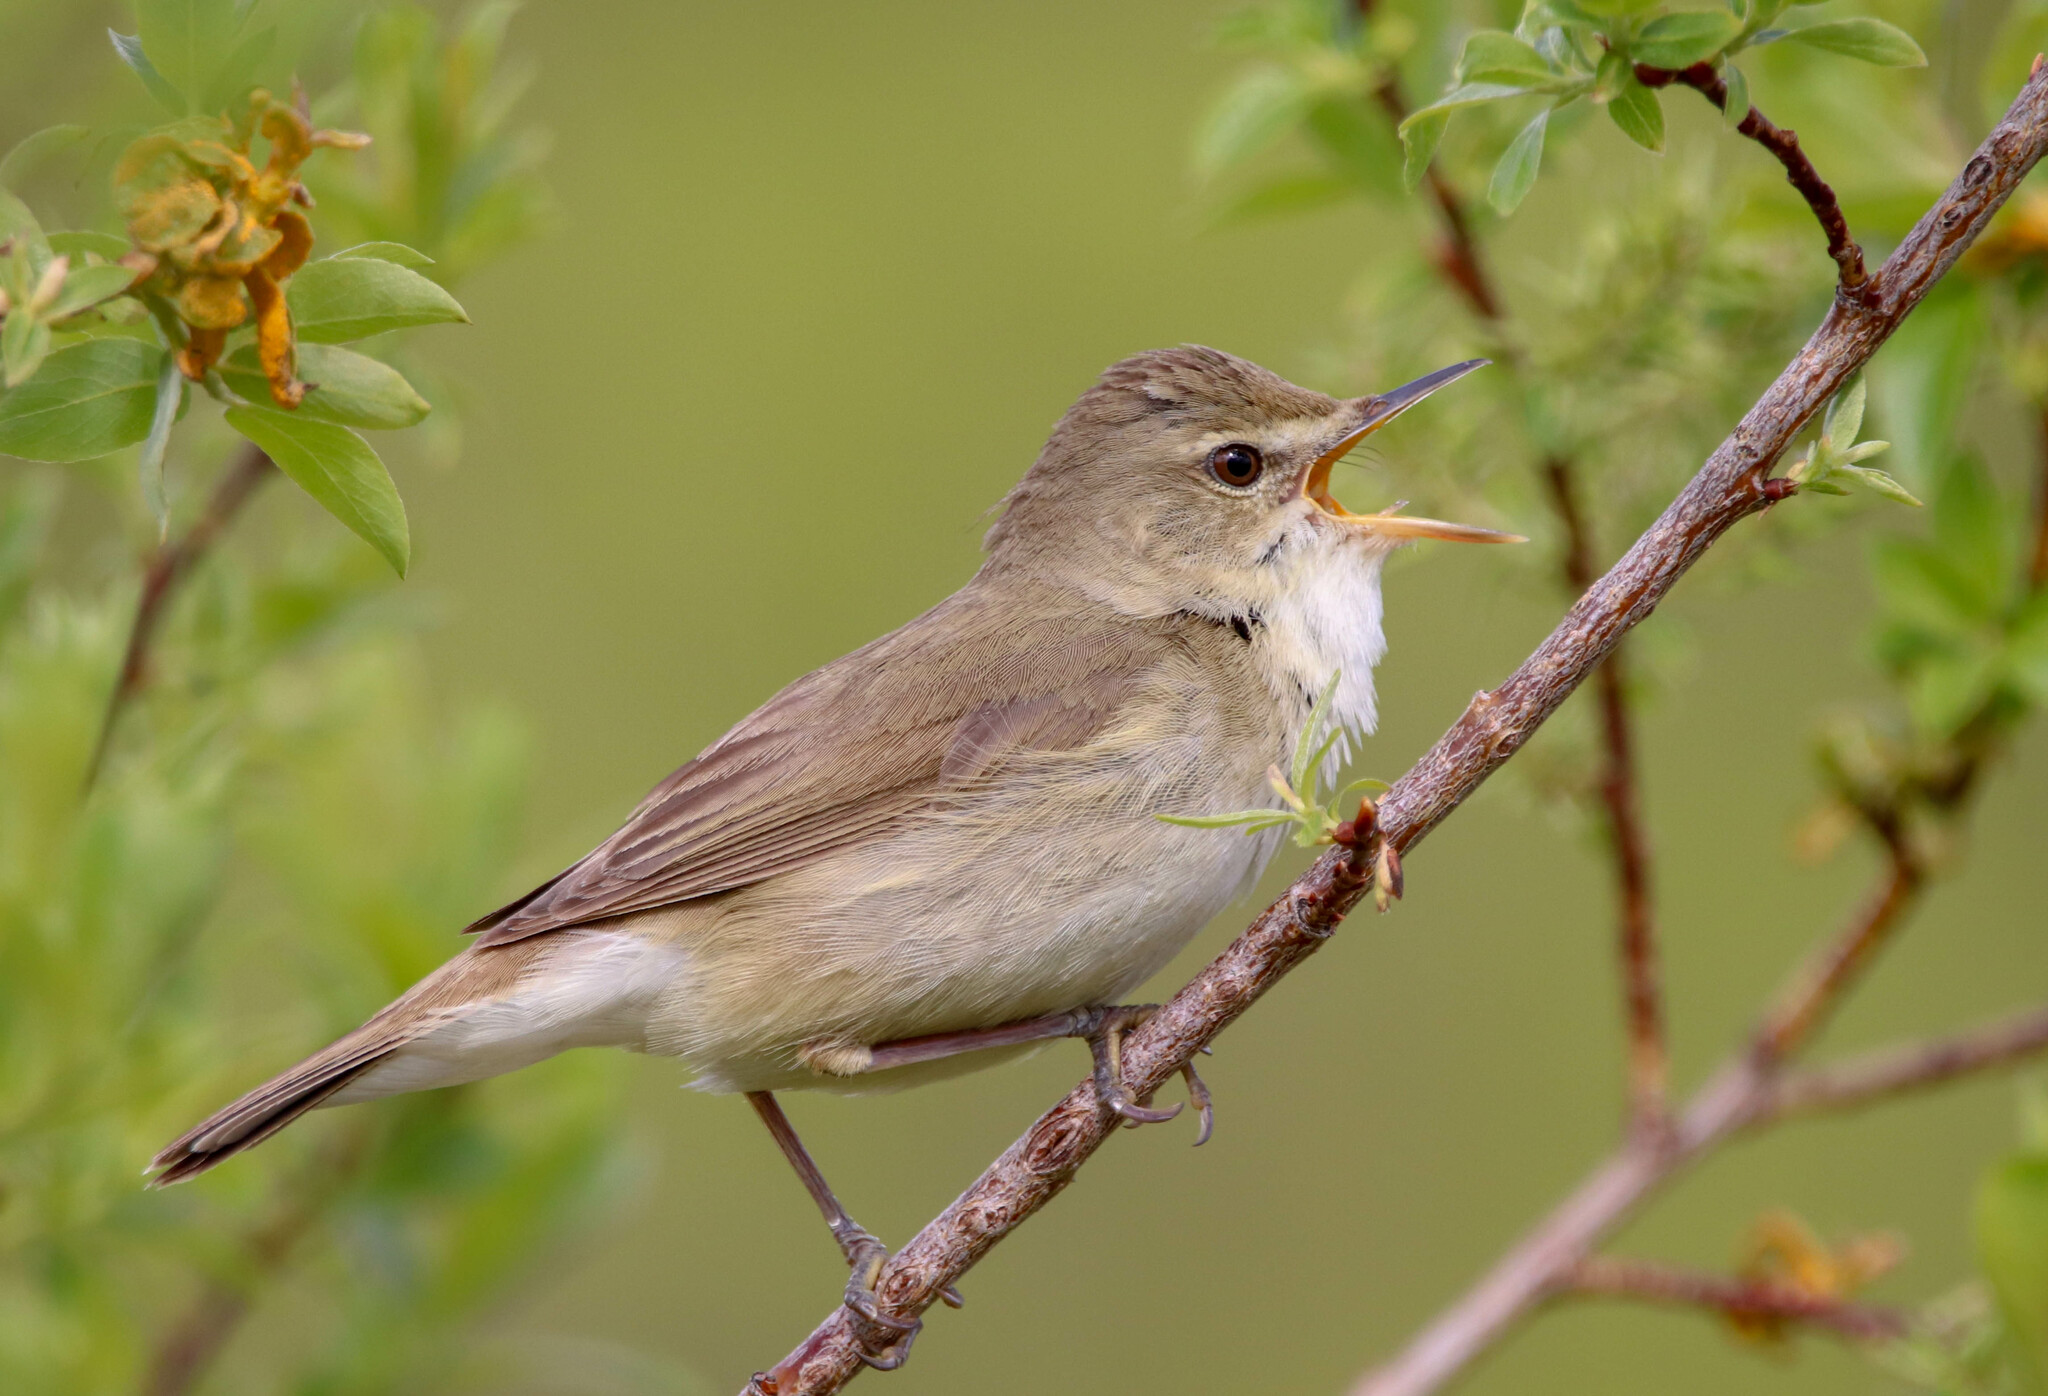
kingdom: Animalia
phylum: Chordata
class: Aves
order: Passeriformes
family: Acrocephalidae
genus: Acrocephalus
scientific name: Acrocephalus dumetorum
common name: Blyth's reed warbler
